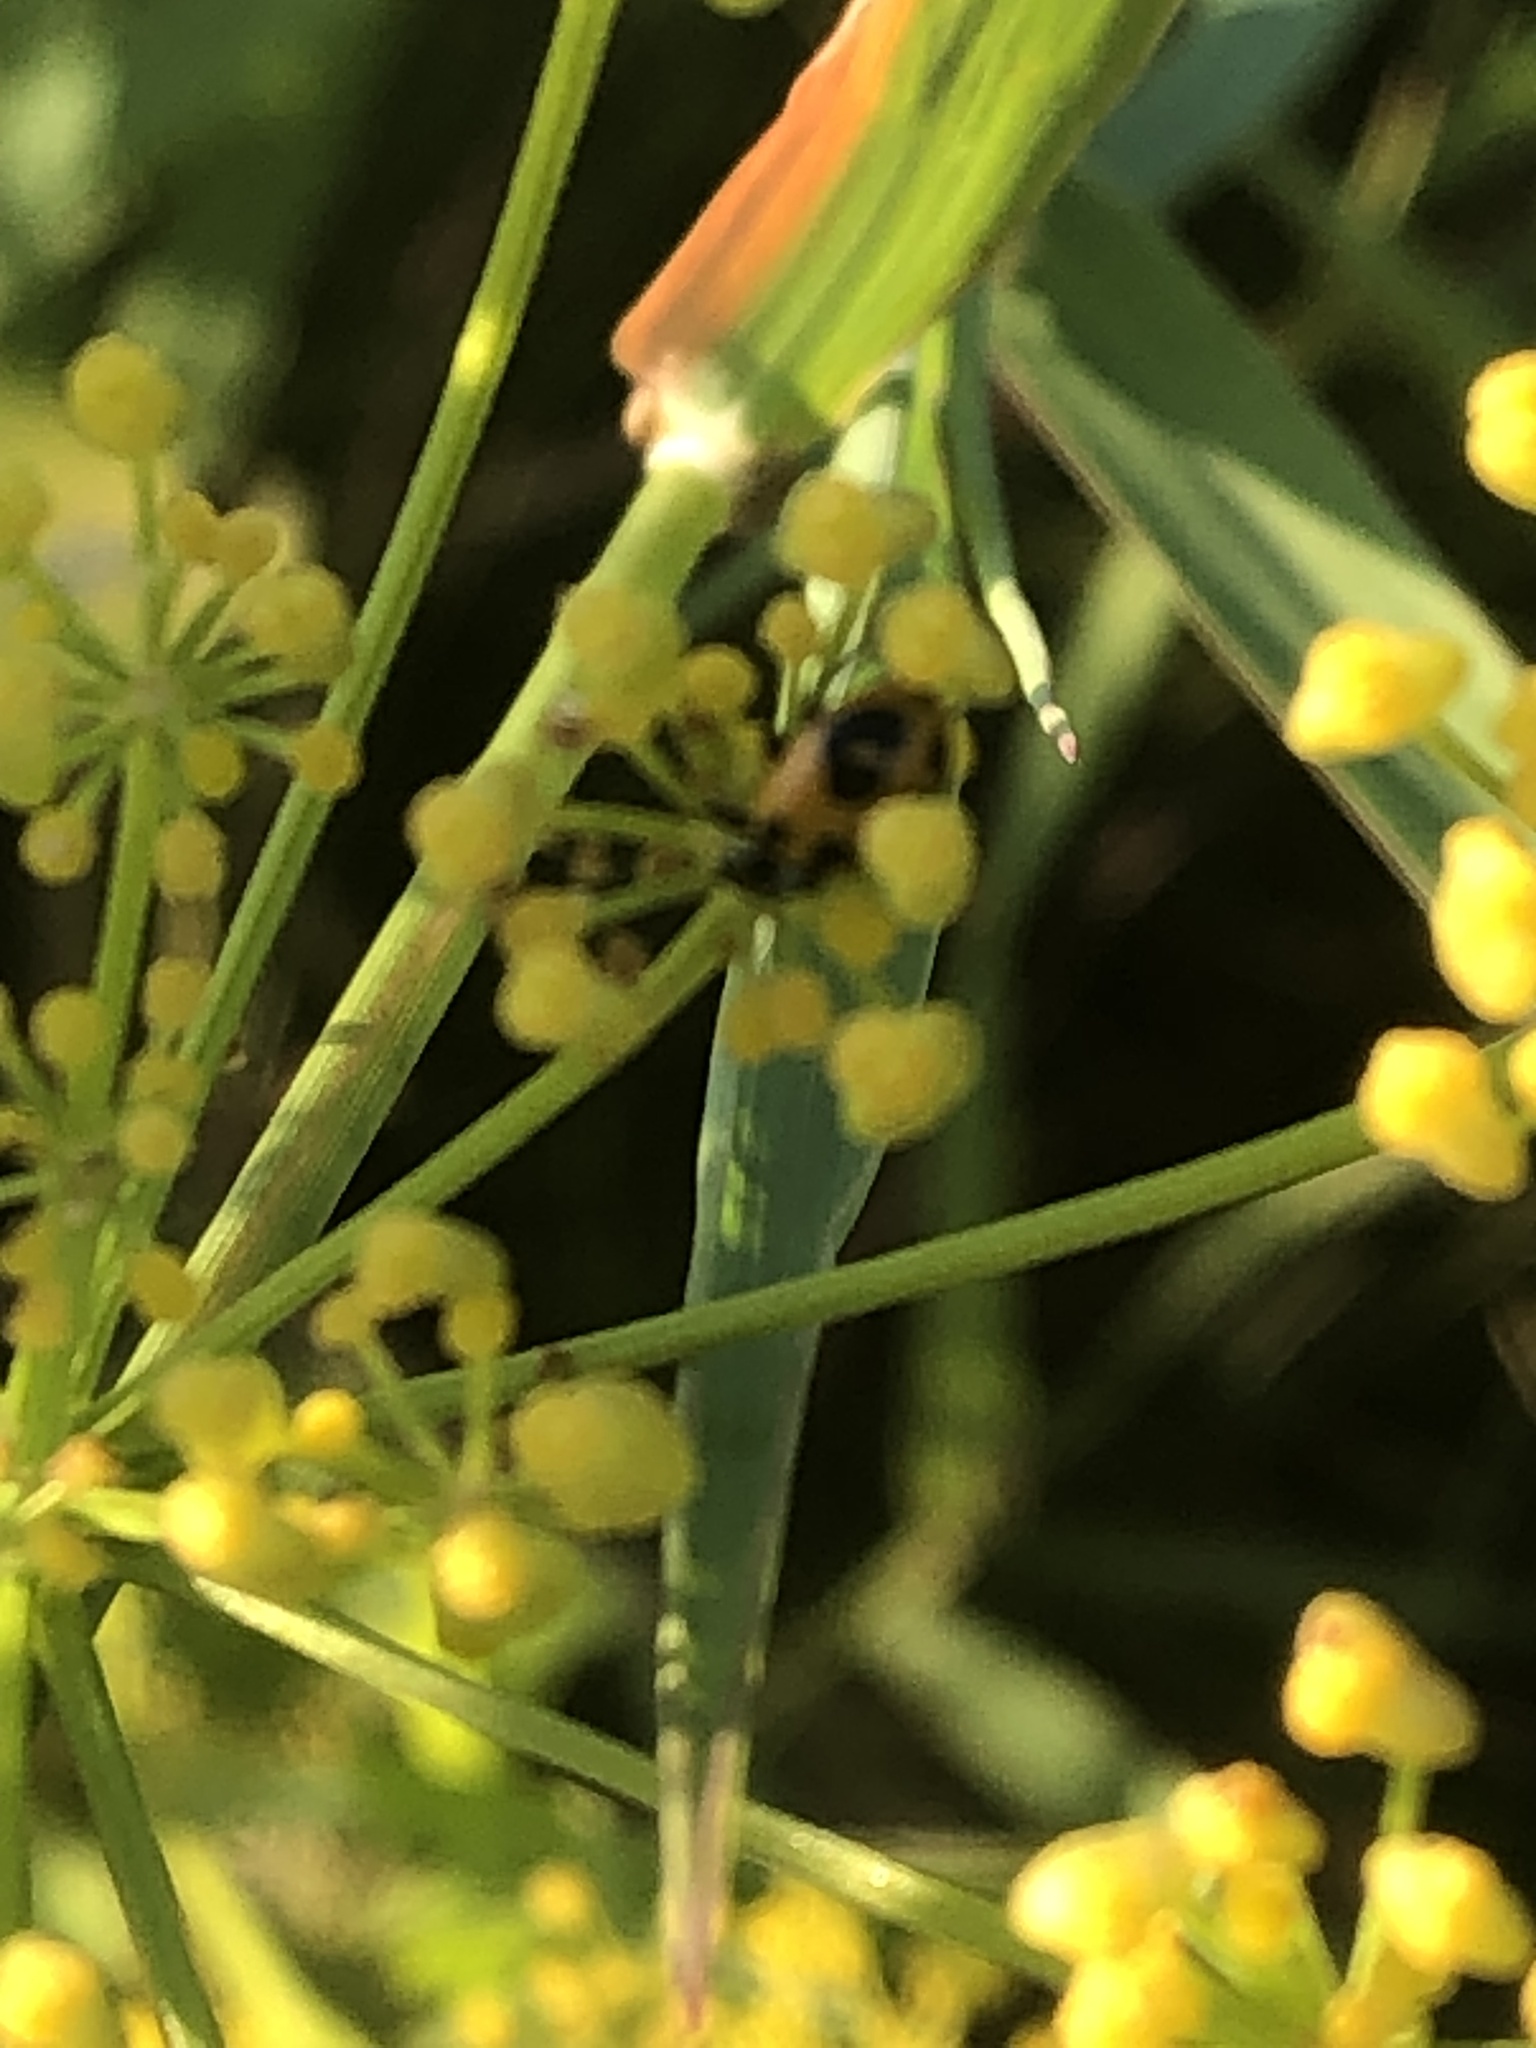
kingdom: Animalia
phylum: Arthropoda
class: Insecta
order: Coleoptera
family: Coccinellidae
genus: Hippodamia
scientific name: Hippodamia parenthesis
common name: Parenthesis lady beetle
